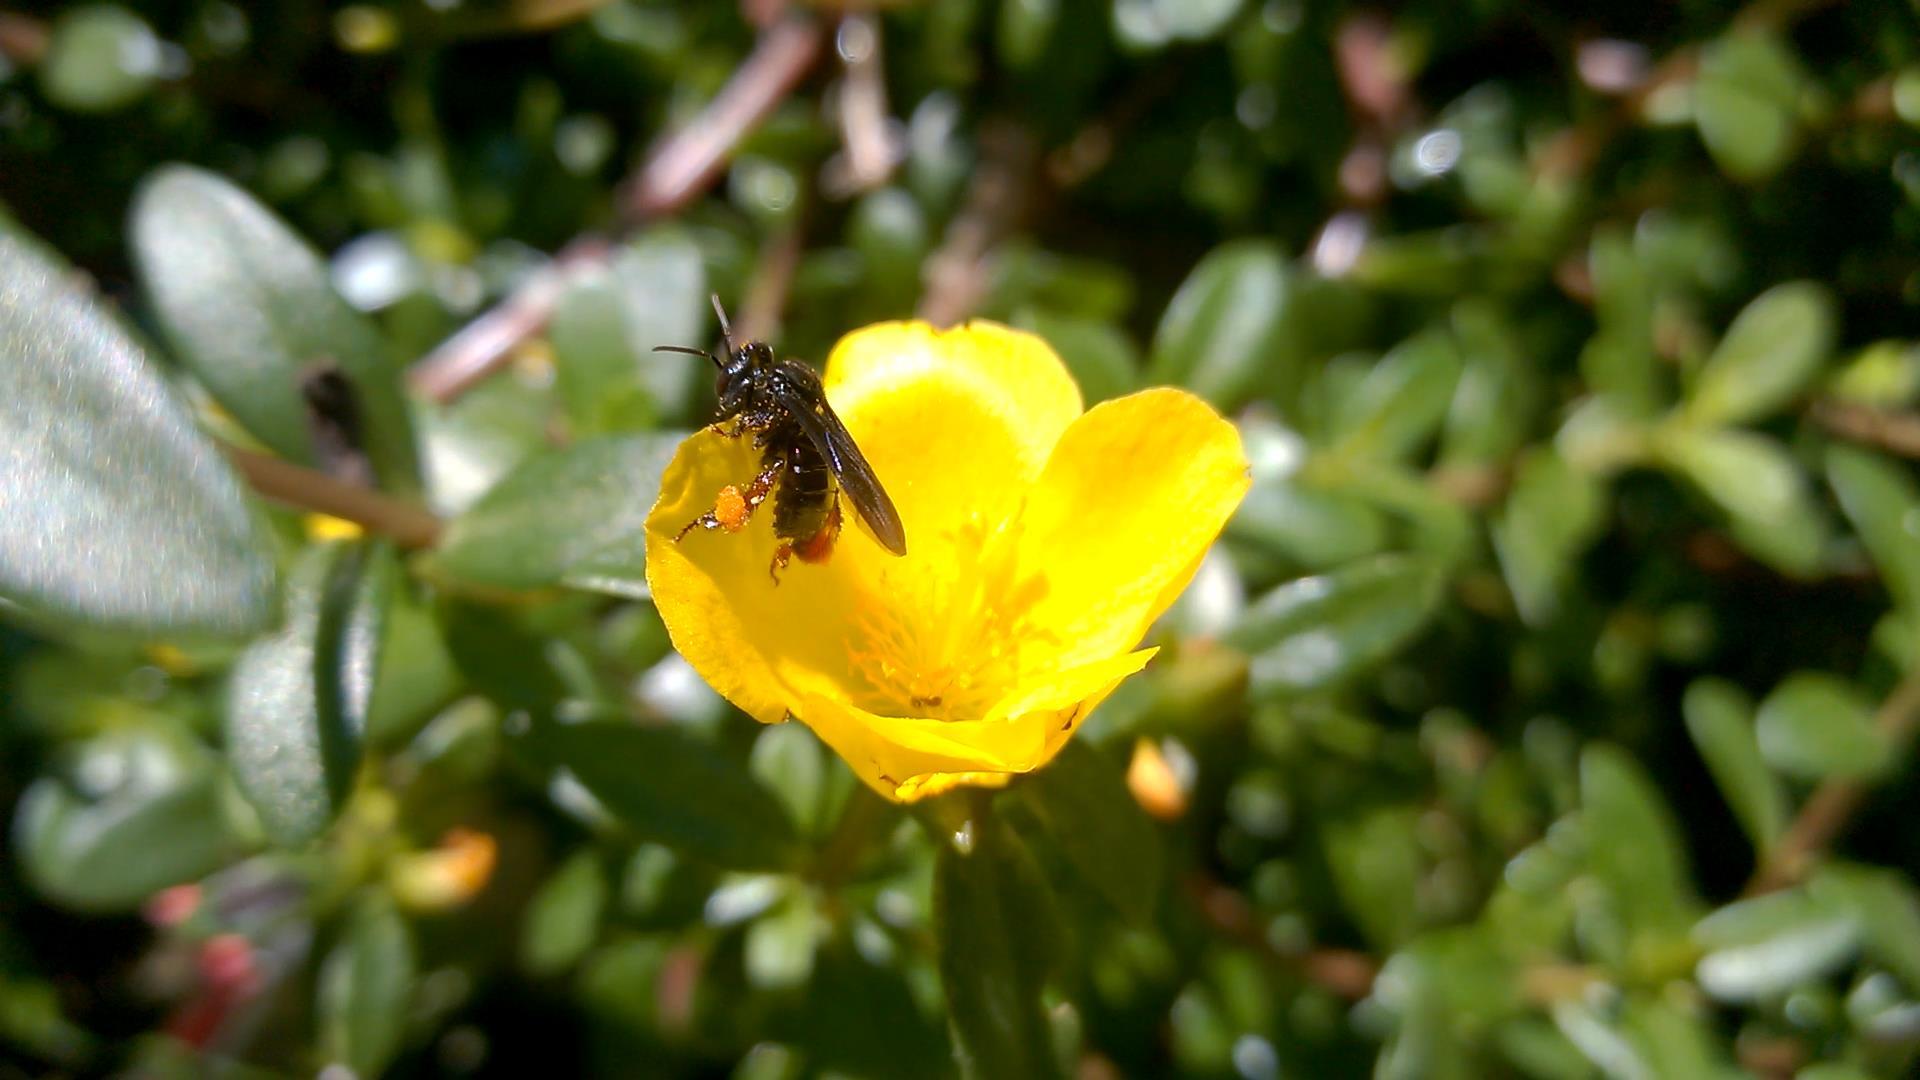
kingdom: Animalia
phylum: Arthropoda
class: Insecta
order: Hymenoptera
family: Apidae
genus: Trigona
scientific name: Trigona spinipes
